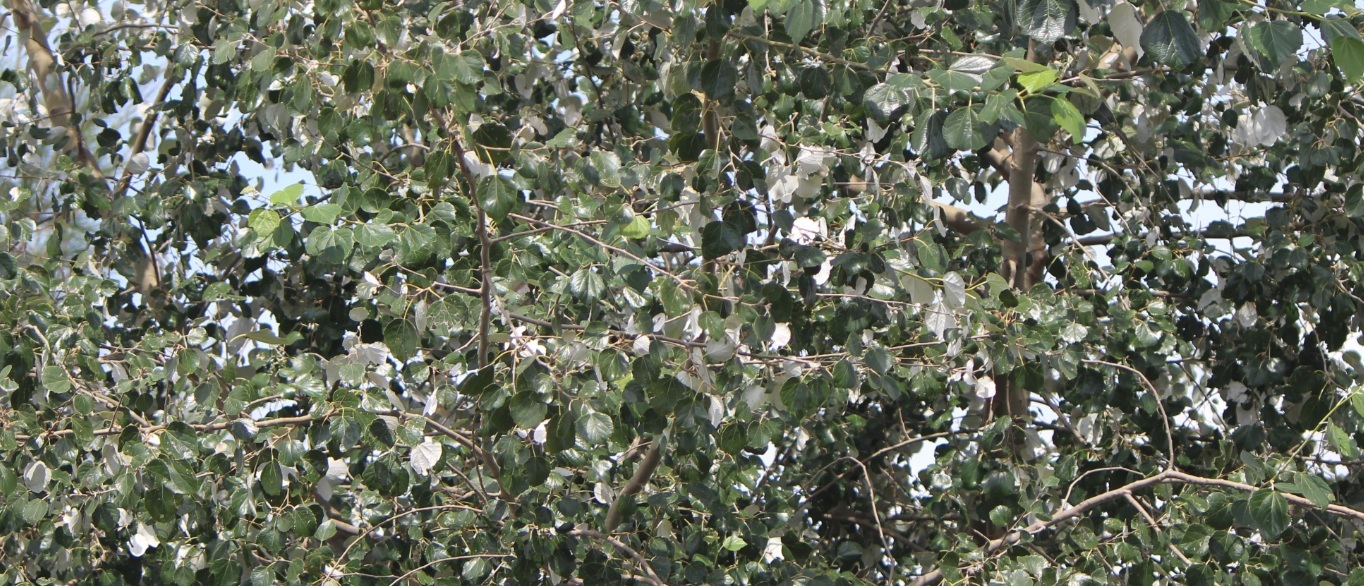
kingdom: Plantae
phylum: Tracheophyta
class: Magnoliopsida
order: Malpighiales
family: Salicaceae
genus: Populus
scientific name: Populus alba
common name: White poplar
